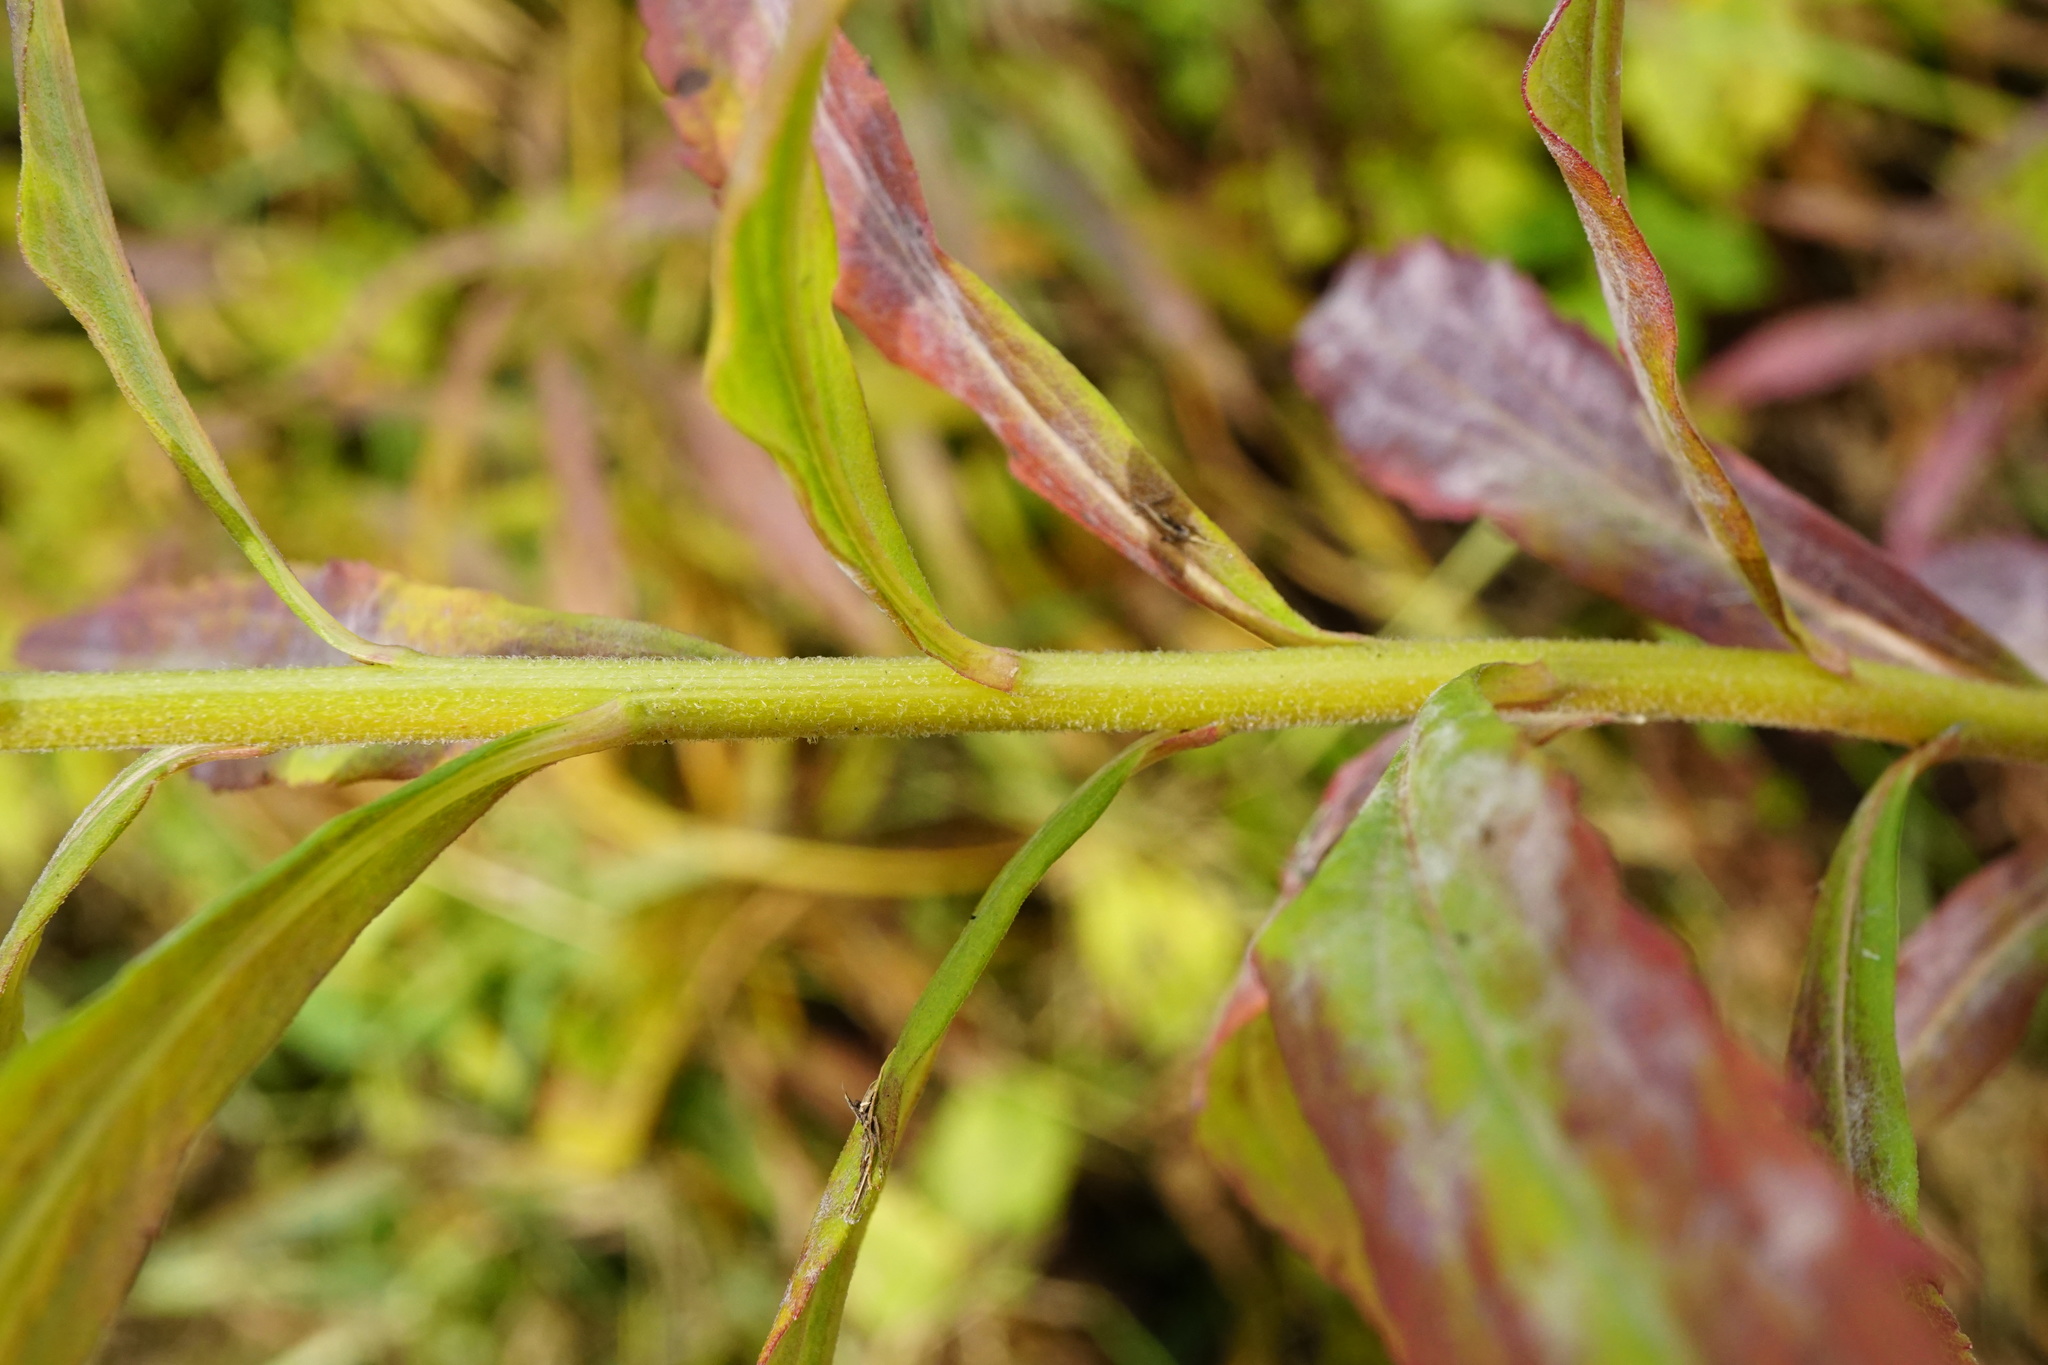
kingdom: Plantae
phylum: Tracheophyta
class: Magnoliopsida
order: Asterales
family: Asteraceae
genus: Solidago
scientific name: Solidago canadensis
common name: Canada goldenrod
